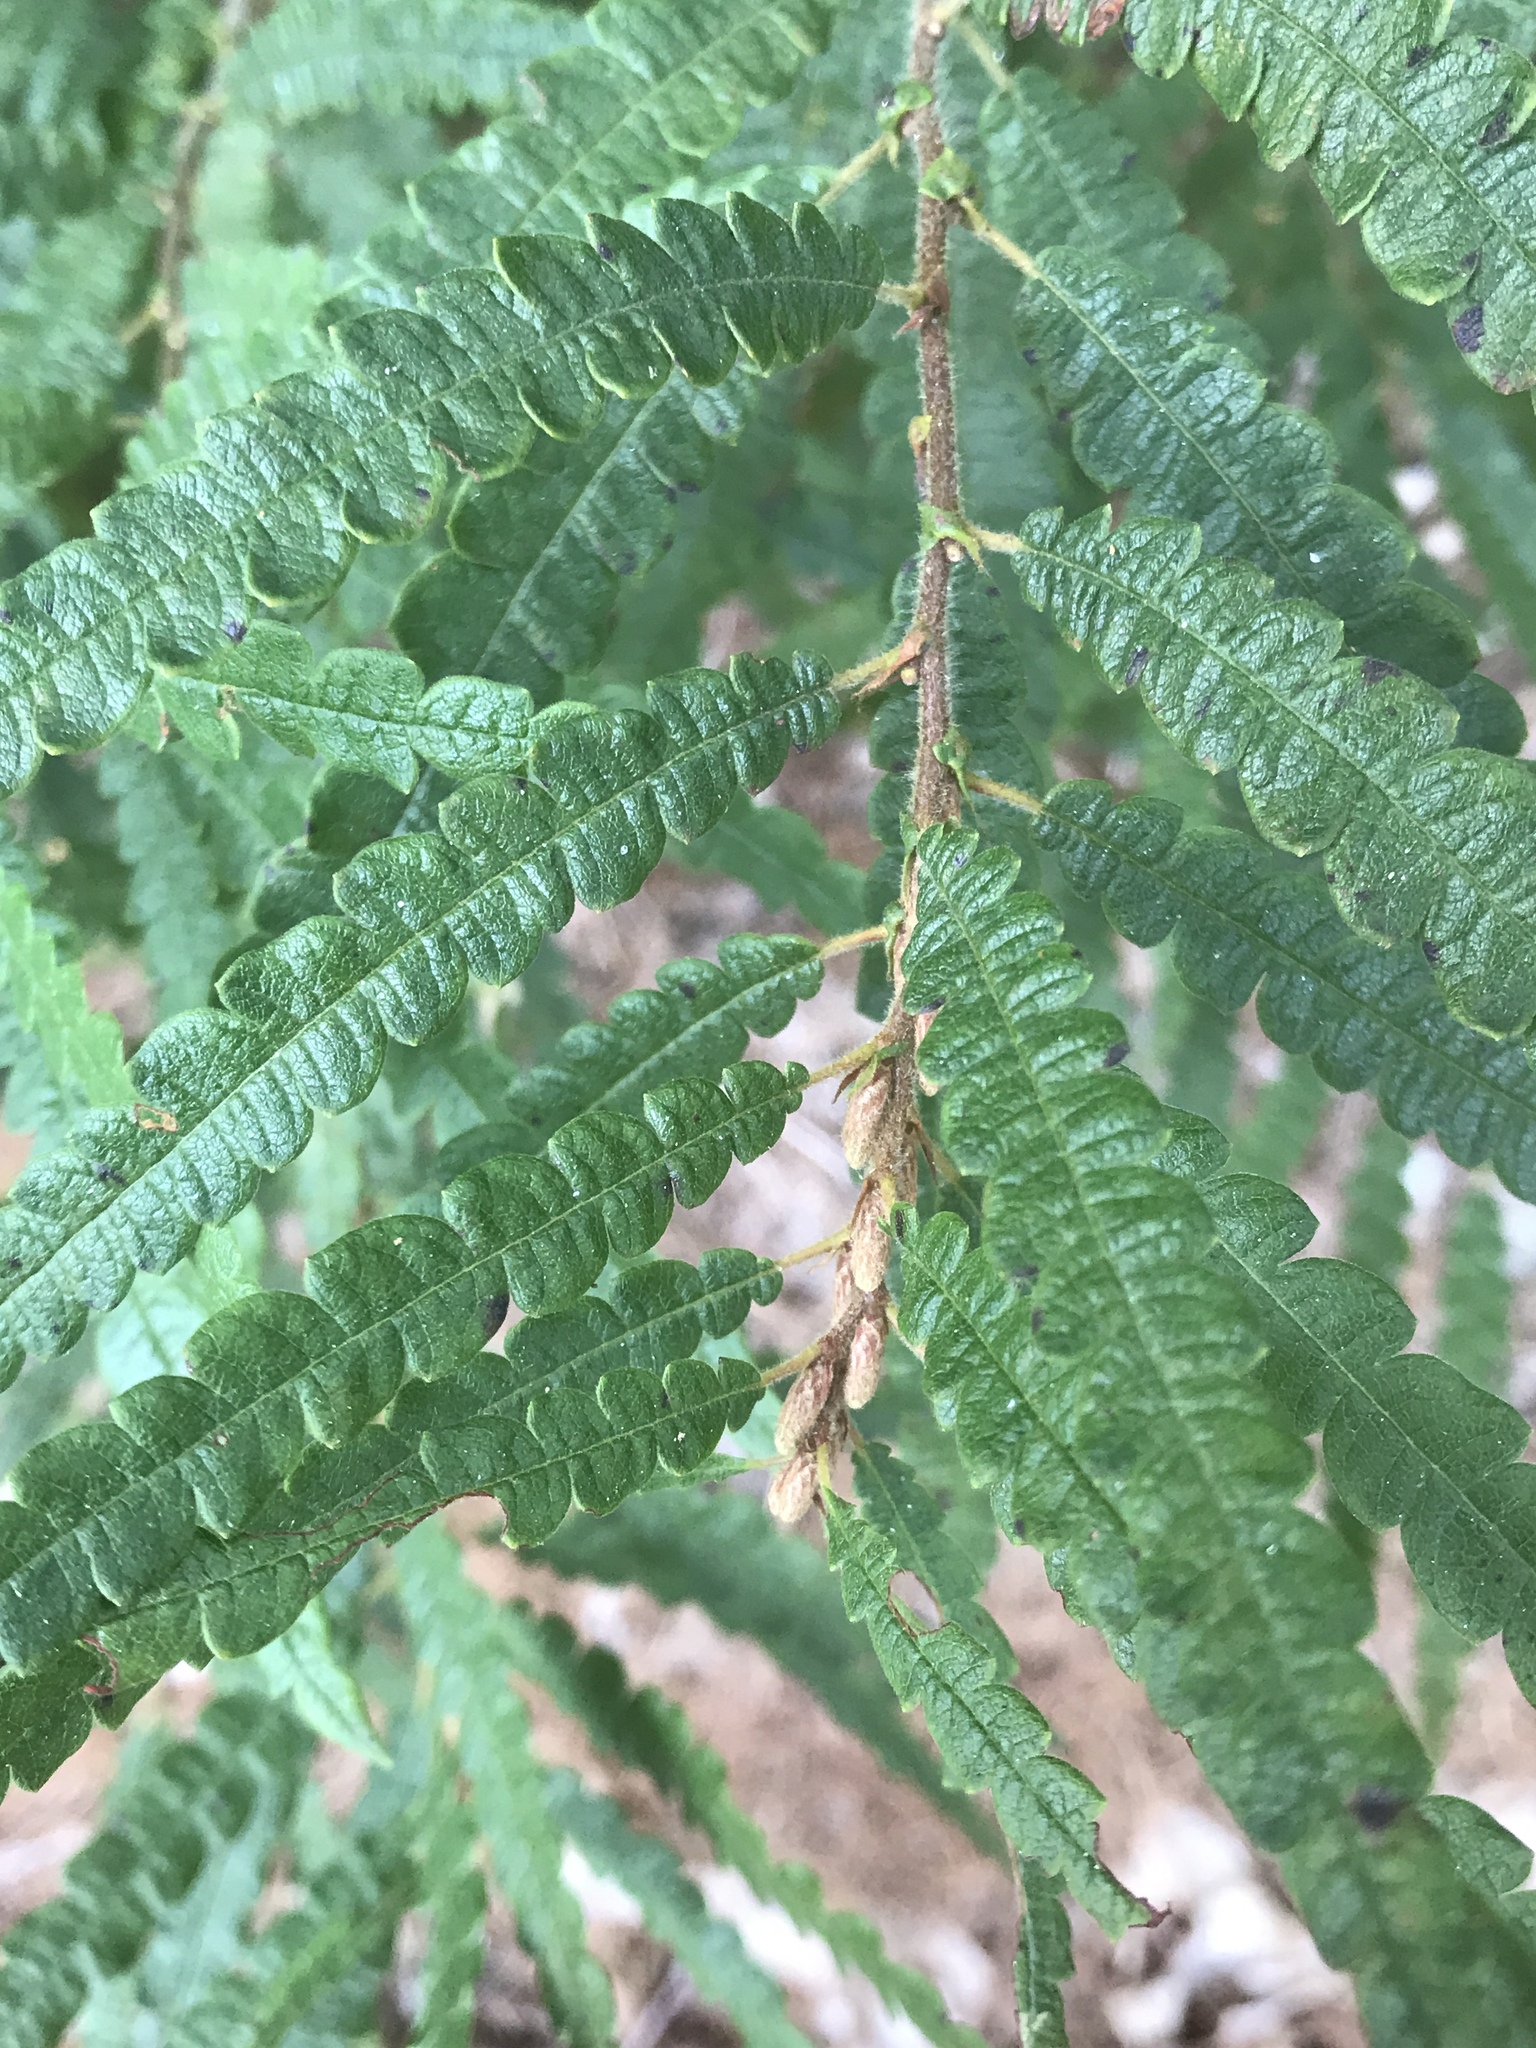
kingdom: Plantae
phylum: Tracheophyta
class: Magnoliopsida
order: Fagales
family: Myricaceae
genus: Comptonia
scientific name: Comptonia peregrina
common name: Sweet-fern
